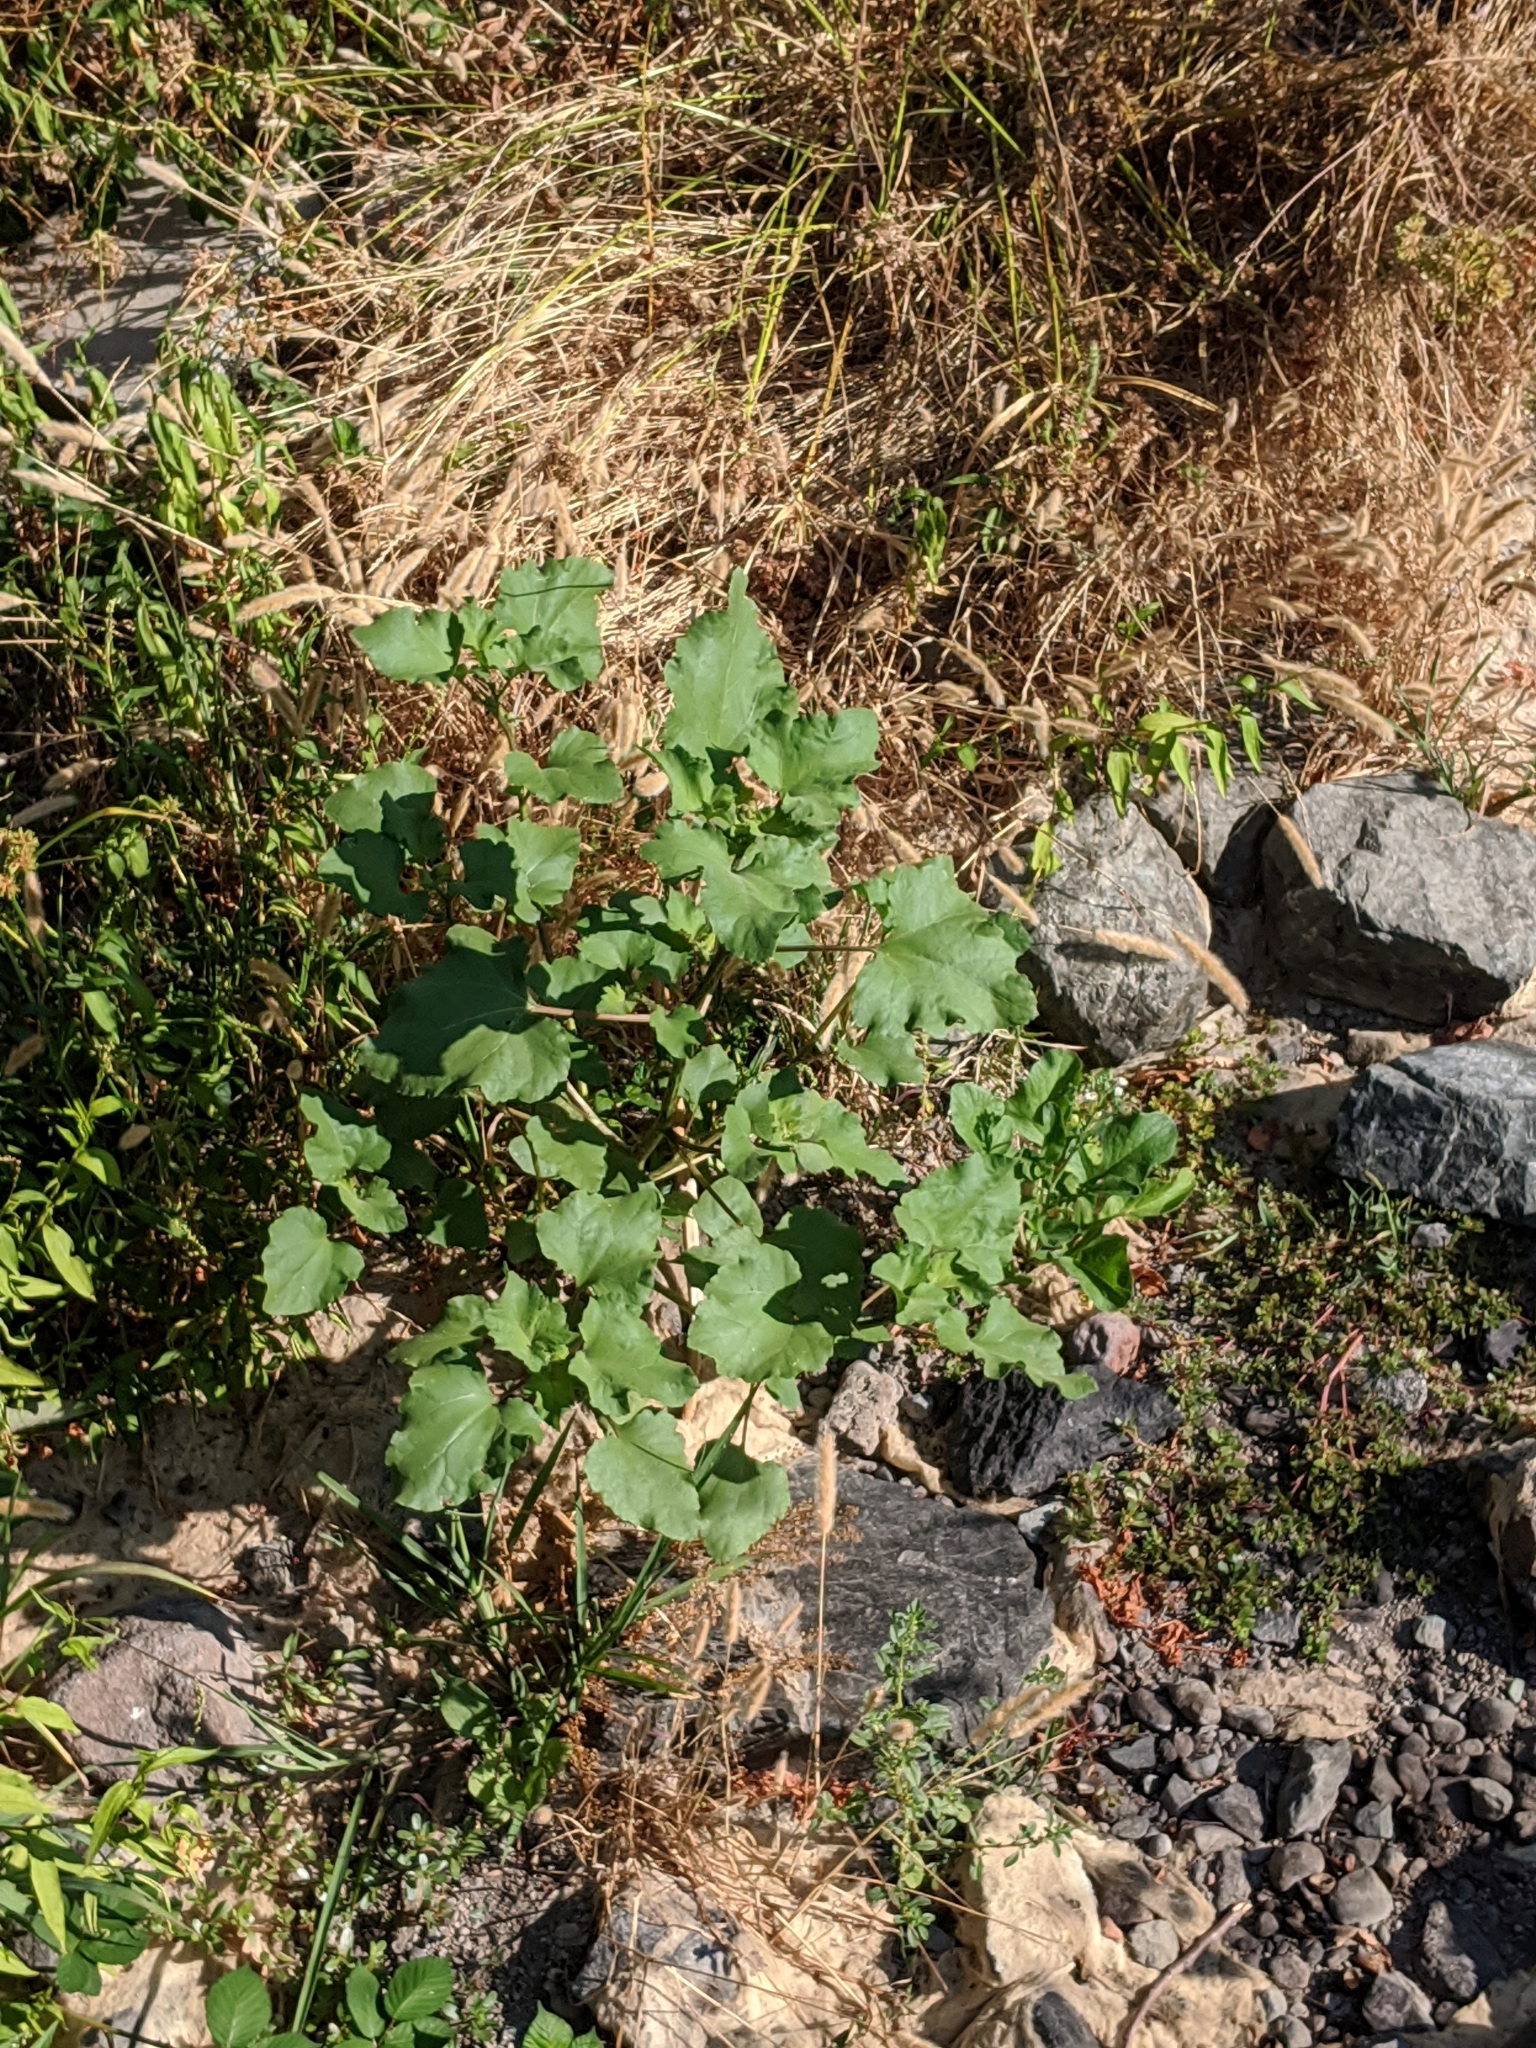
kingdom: Plantae
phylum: Tracheophyta
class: Magnoliopsida
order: Asterales
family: Asteraceae
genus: Xanthium
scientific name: Xanthium strumarium
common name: Rough cocklebur
